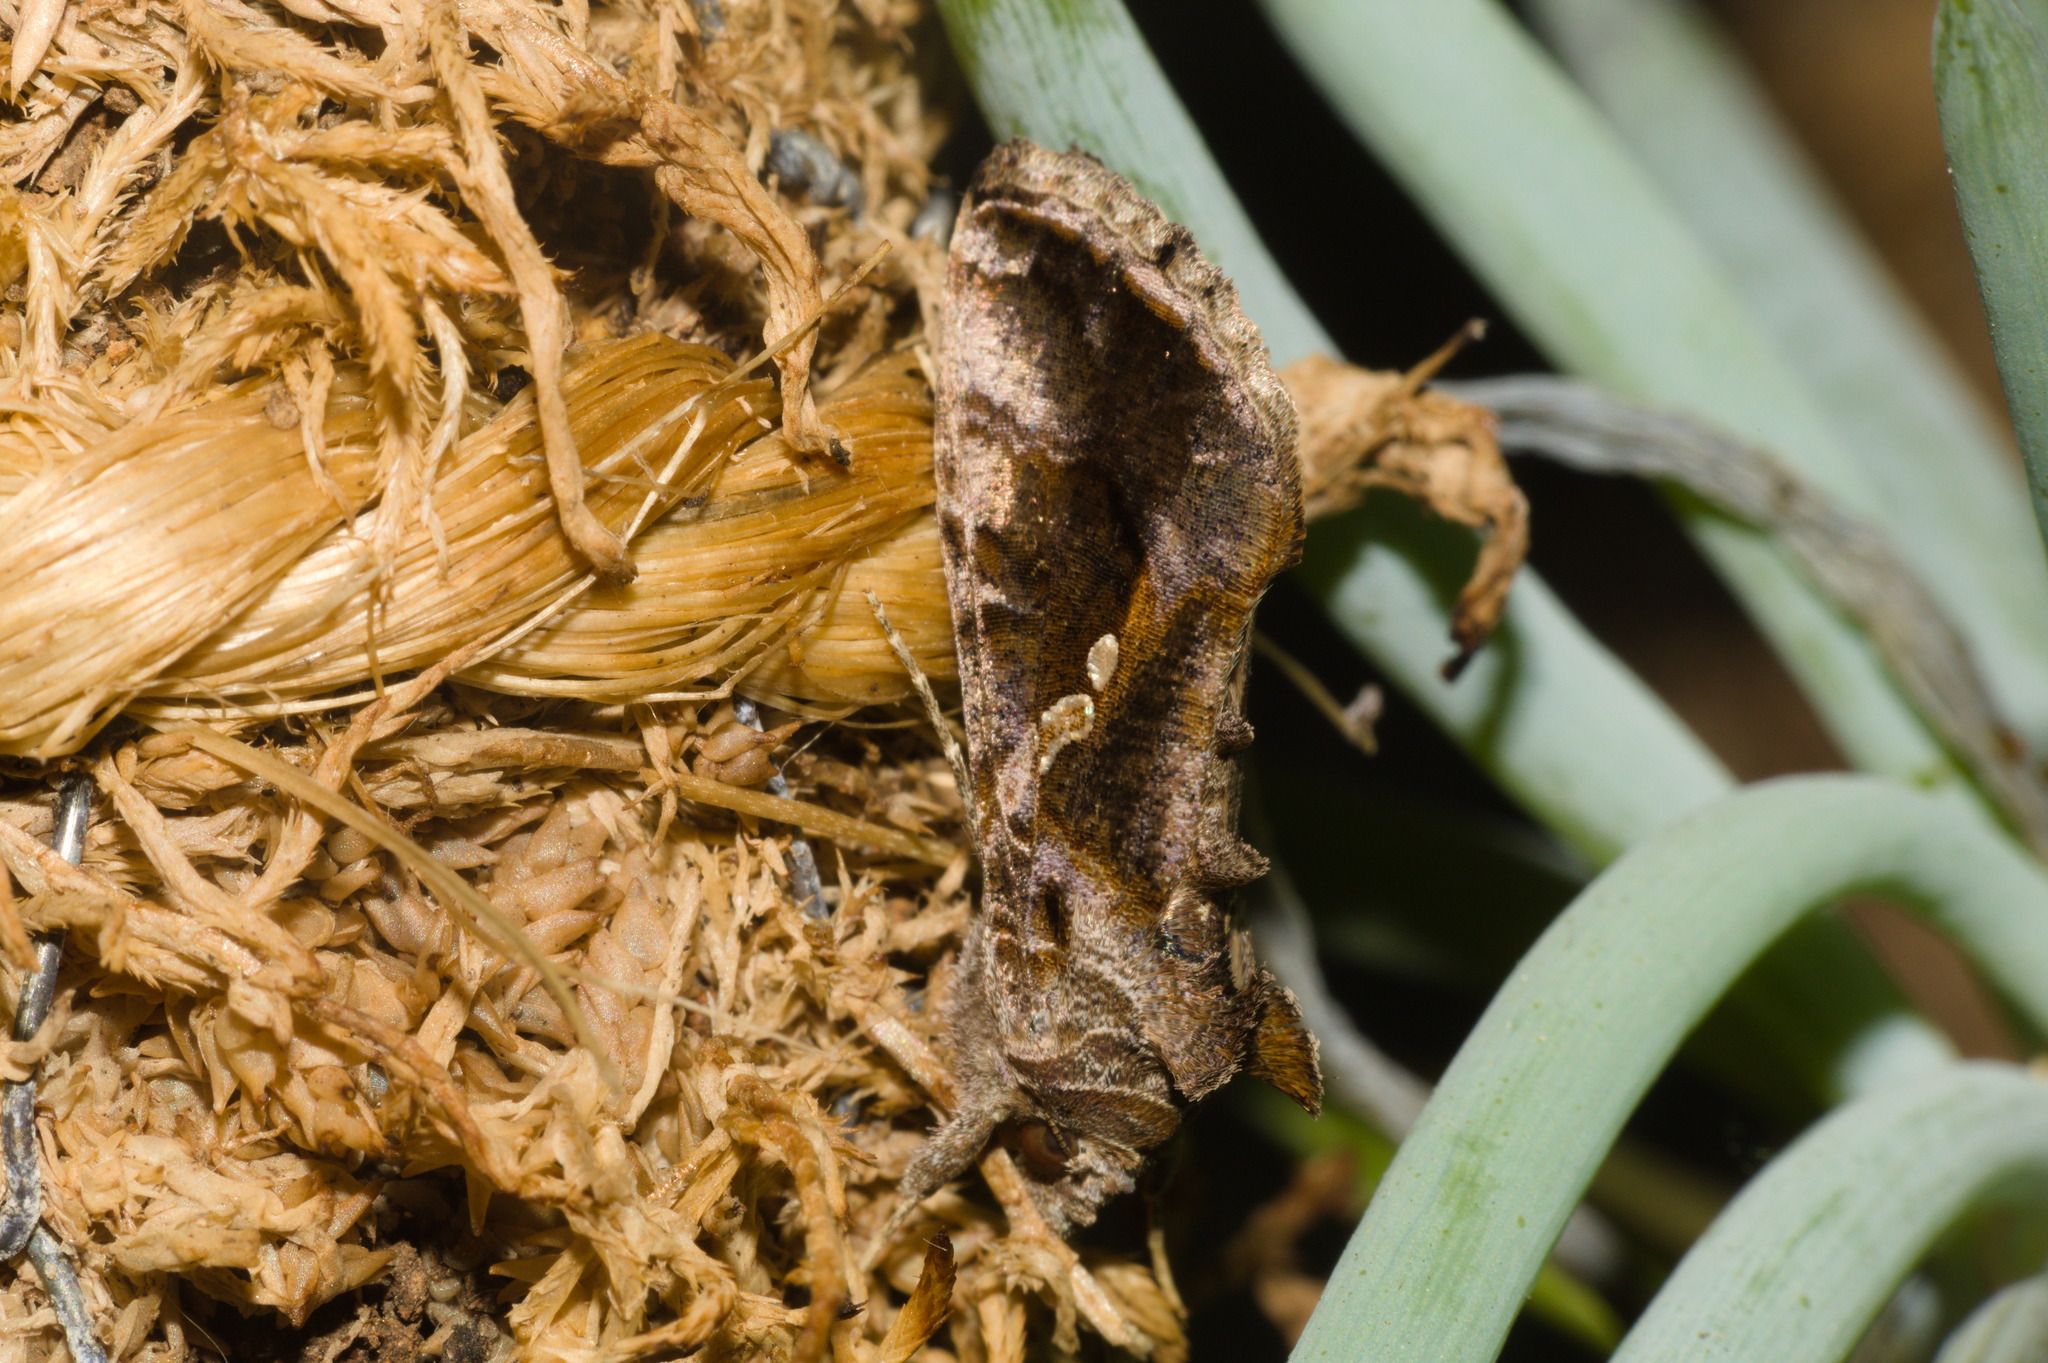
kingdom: Animalia
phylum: Arthropoda
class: Insecta
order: Lepidoptera
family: Noctuidae
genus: Chrysodeixis
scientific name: Chrysodeixis includens
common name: Cutworm moth
